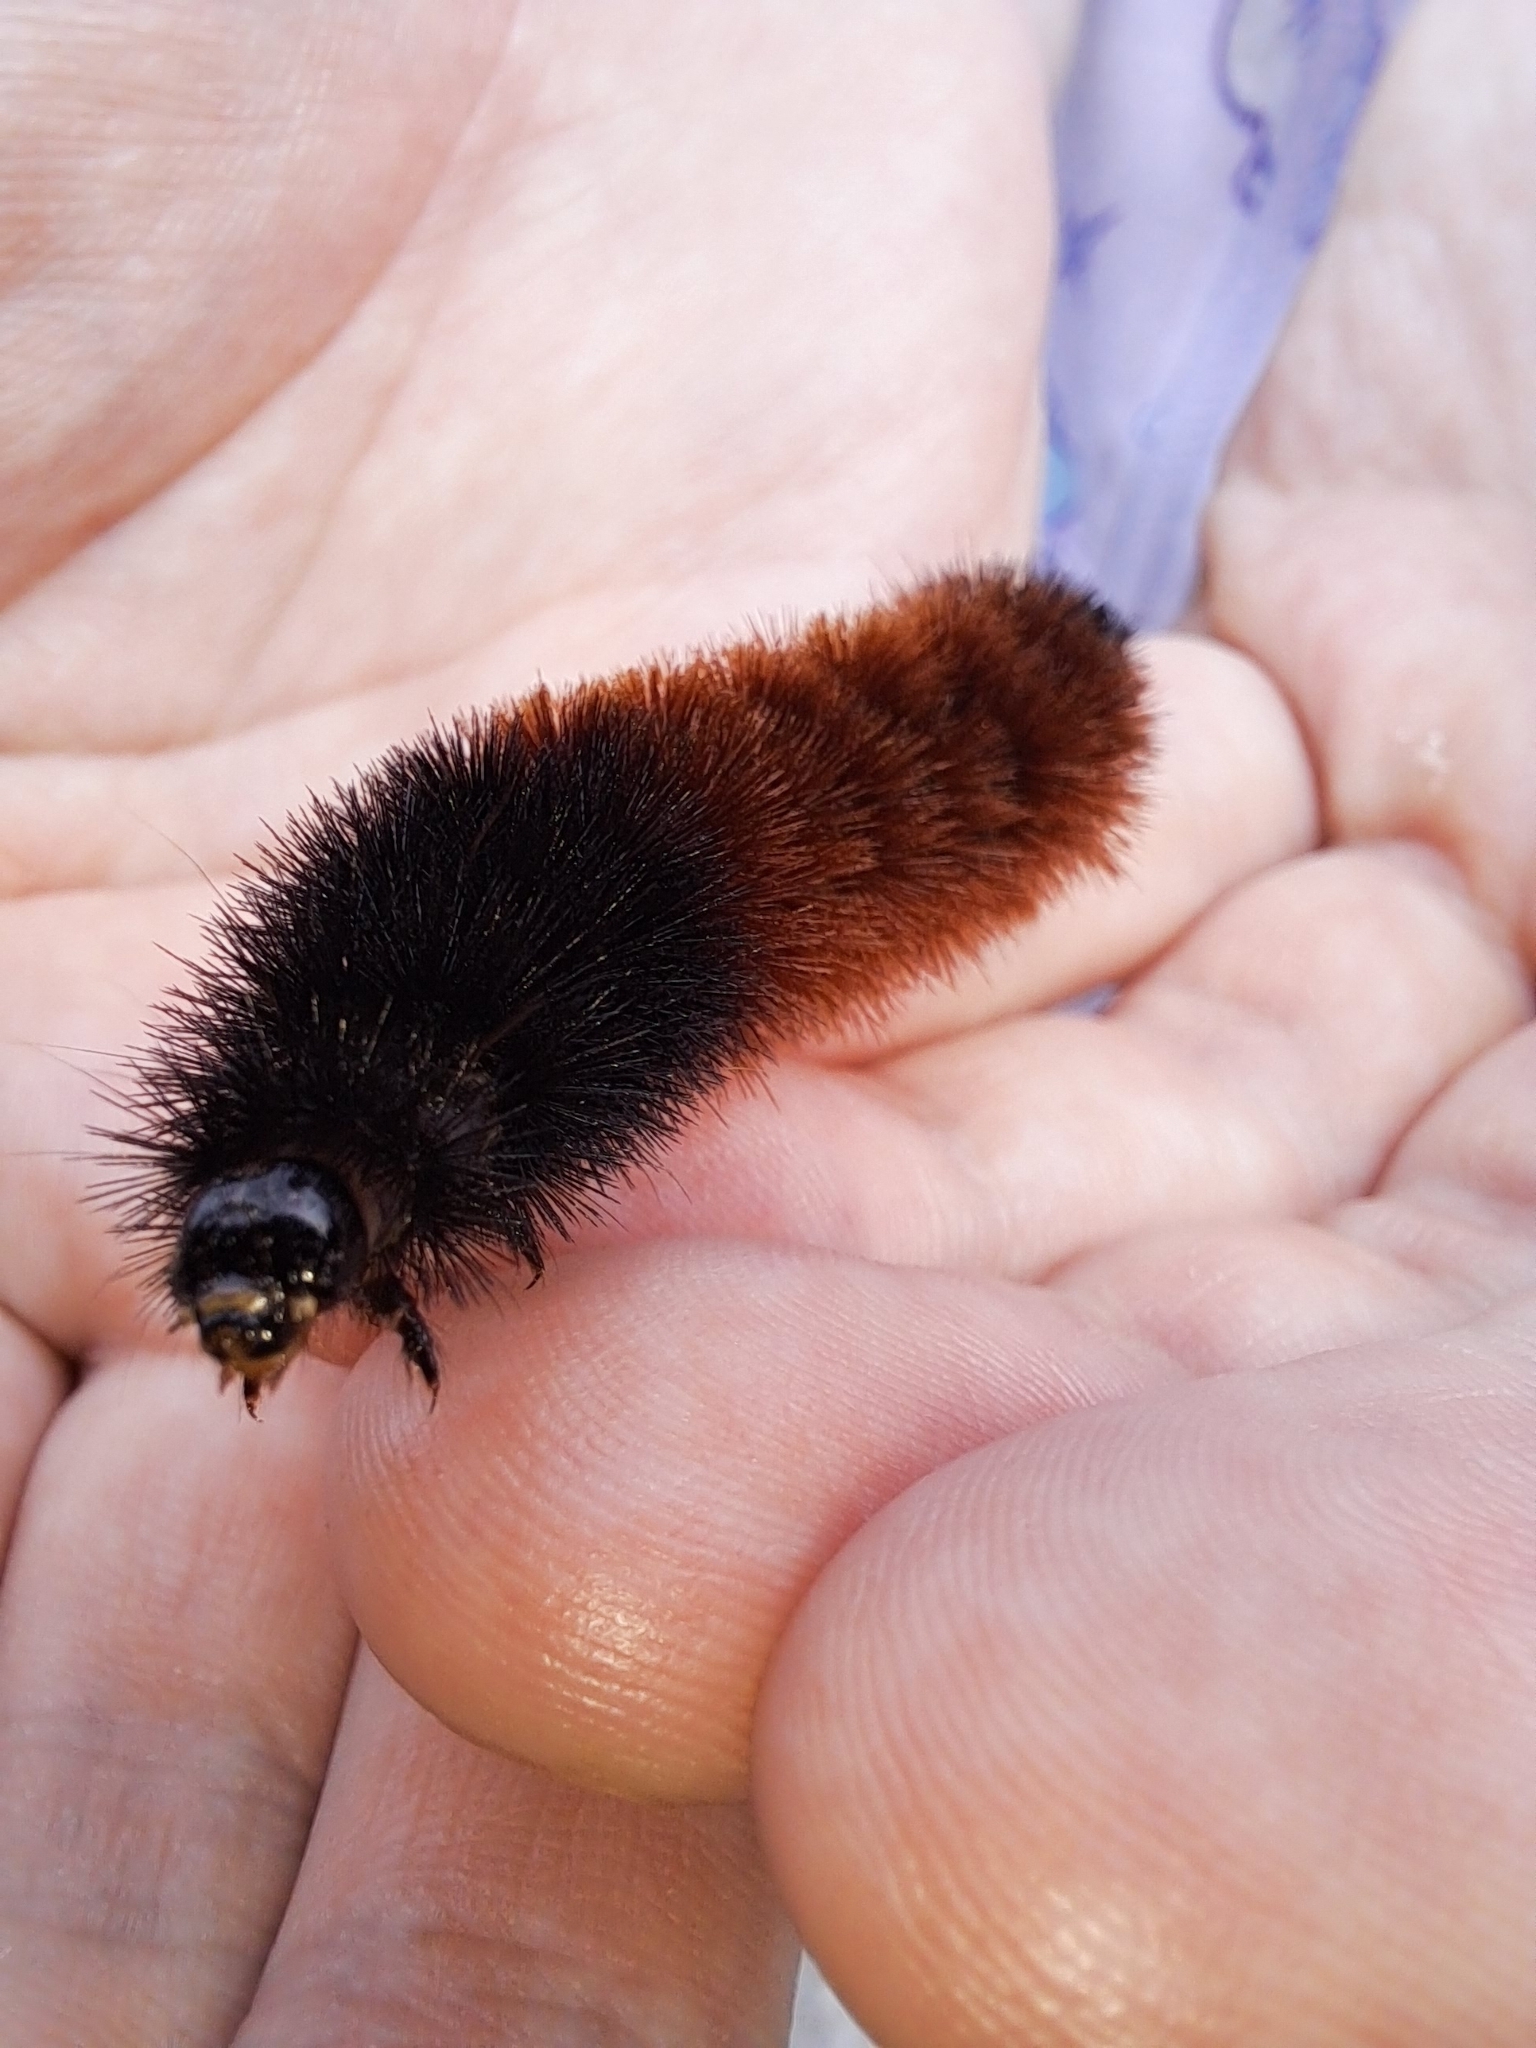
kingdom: Animalia
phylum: Arthropoda
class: Insecta
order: Lepidoptera
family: Erebidae
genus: Pyrrharctia
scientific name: Pyrrharctia isabella
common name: Isabella tiger moth
